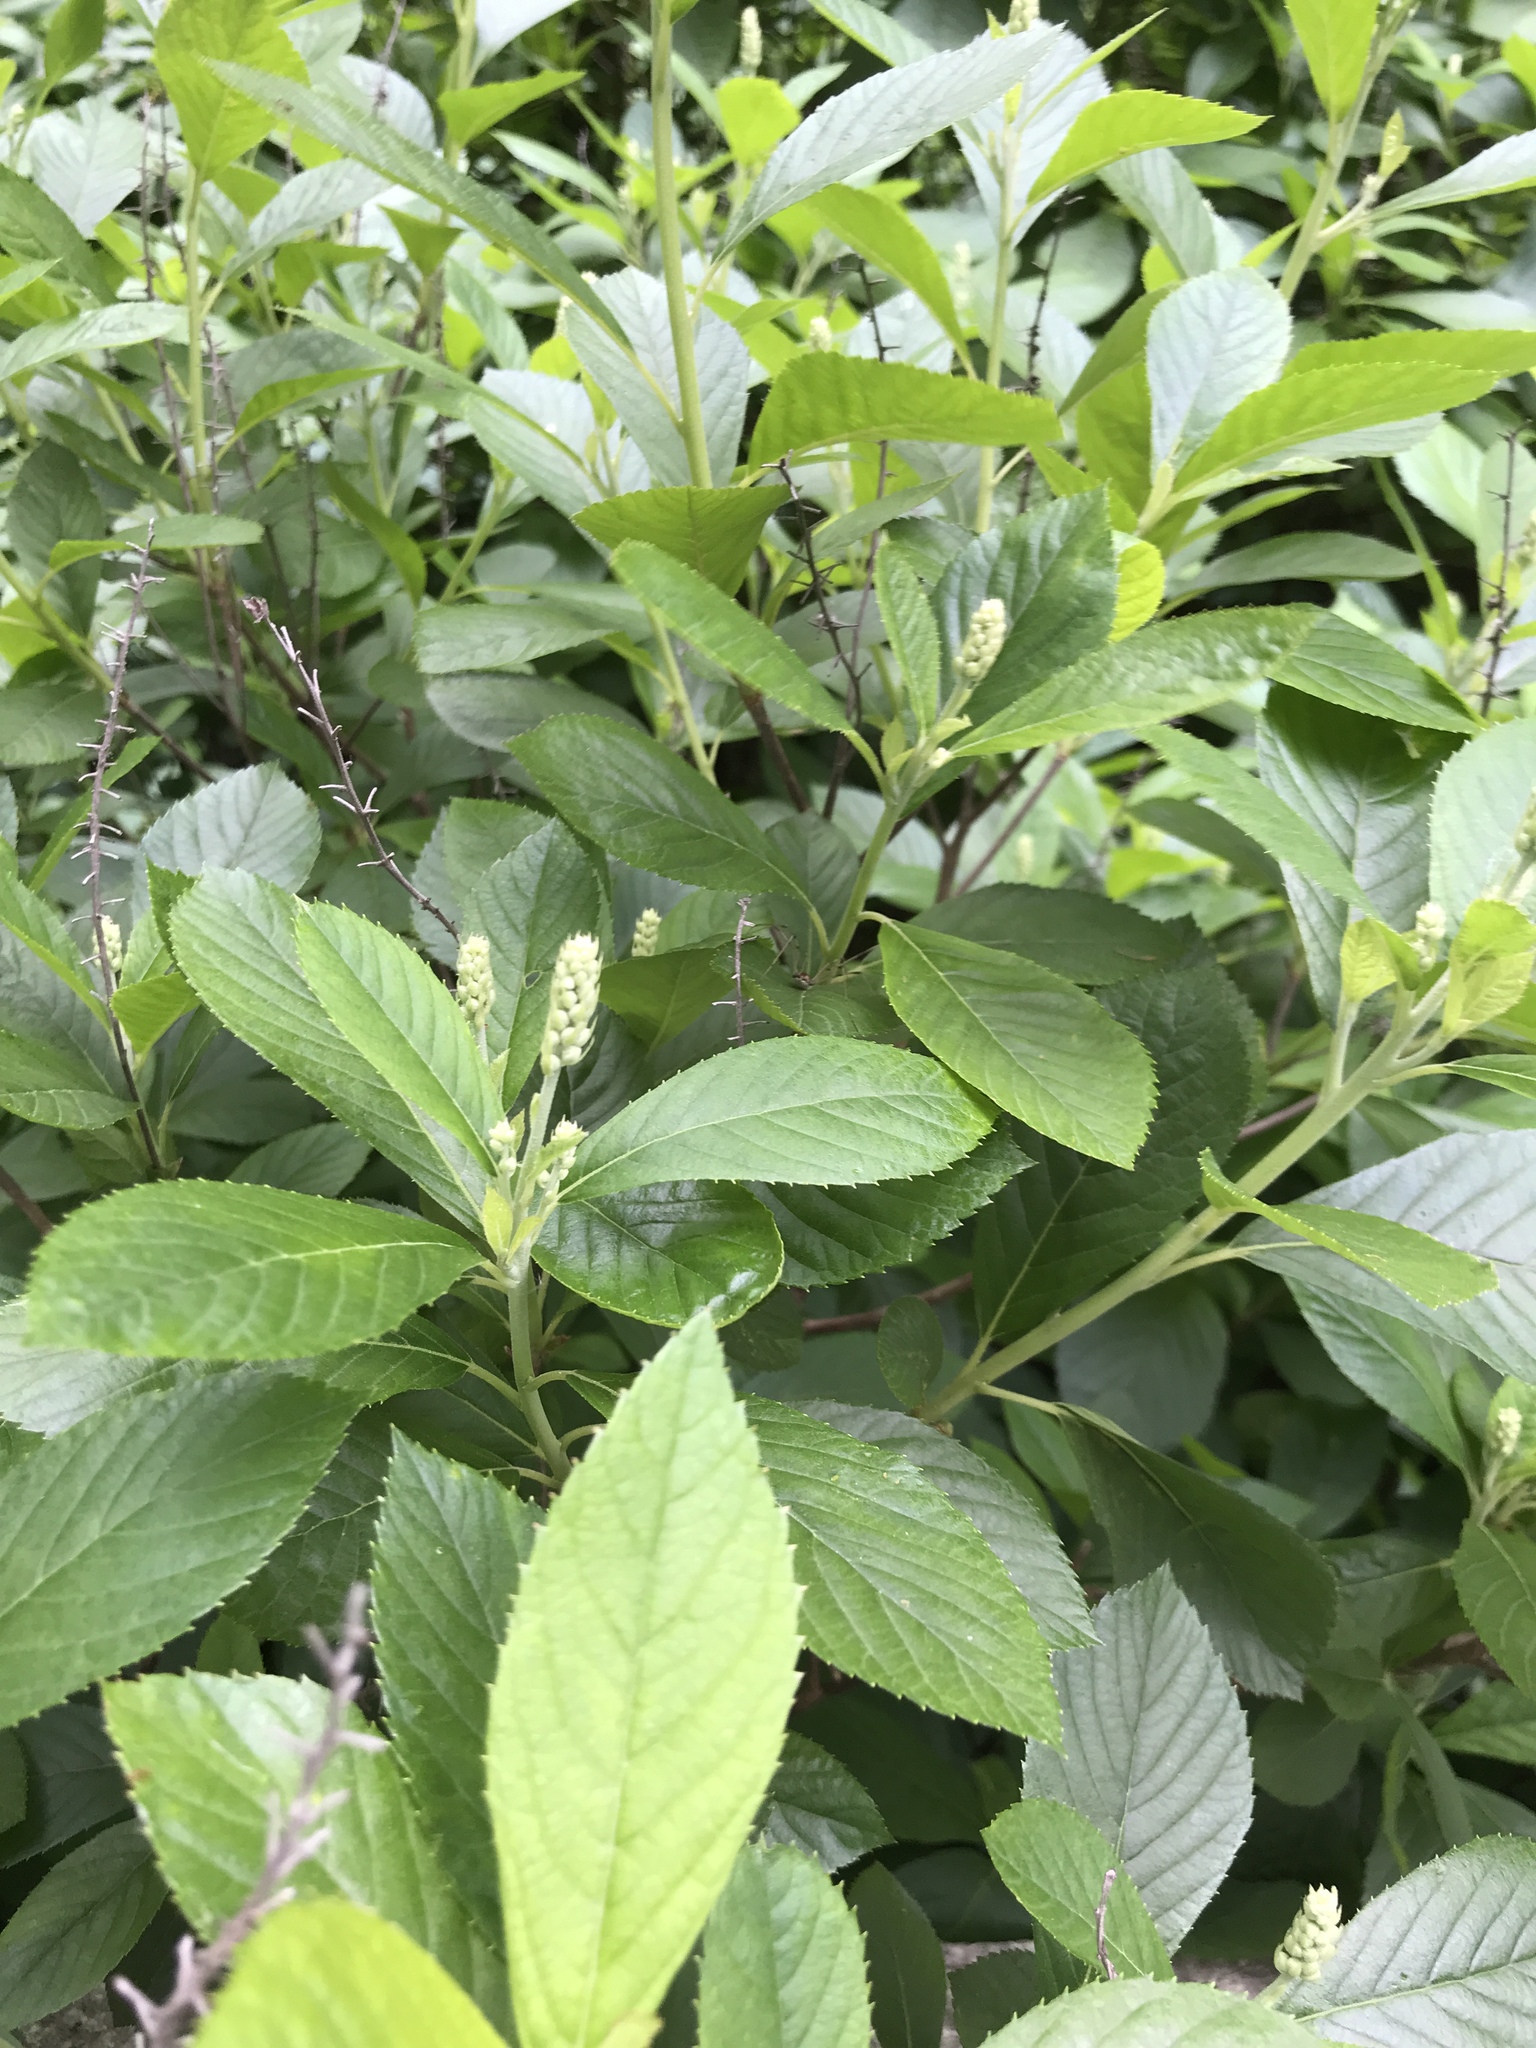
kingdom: Plantae
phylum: Tracheophyta
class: Magnoliopsida
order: Ericales
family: Clethraceae
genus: Clethra
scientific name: Clethra alnifolia
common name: Sweet pepperbush
